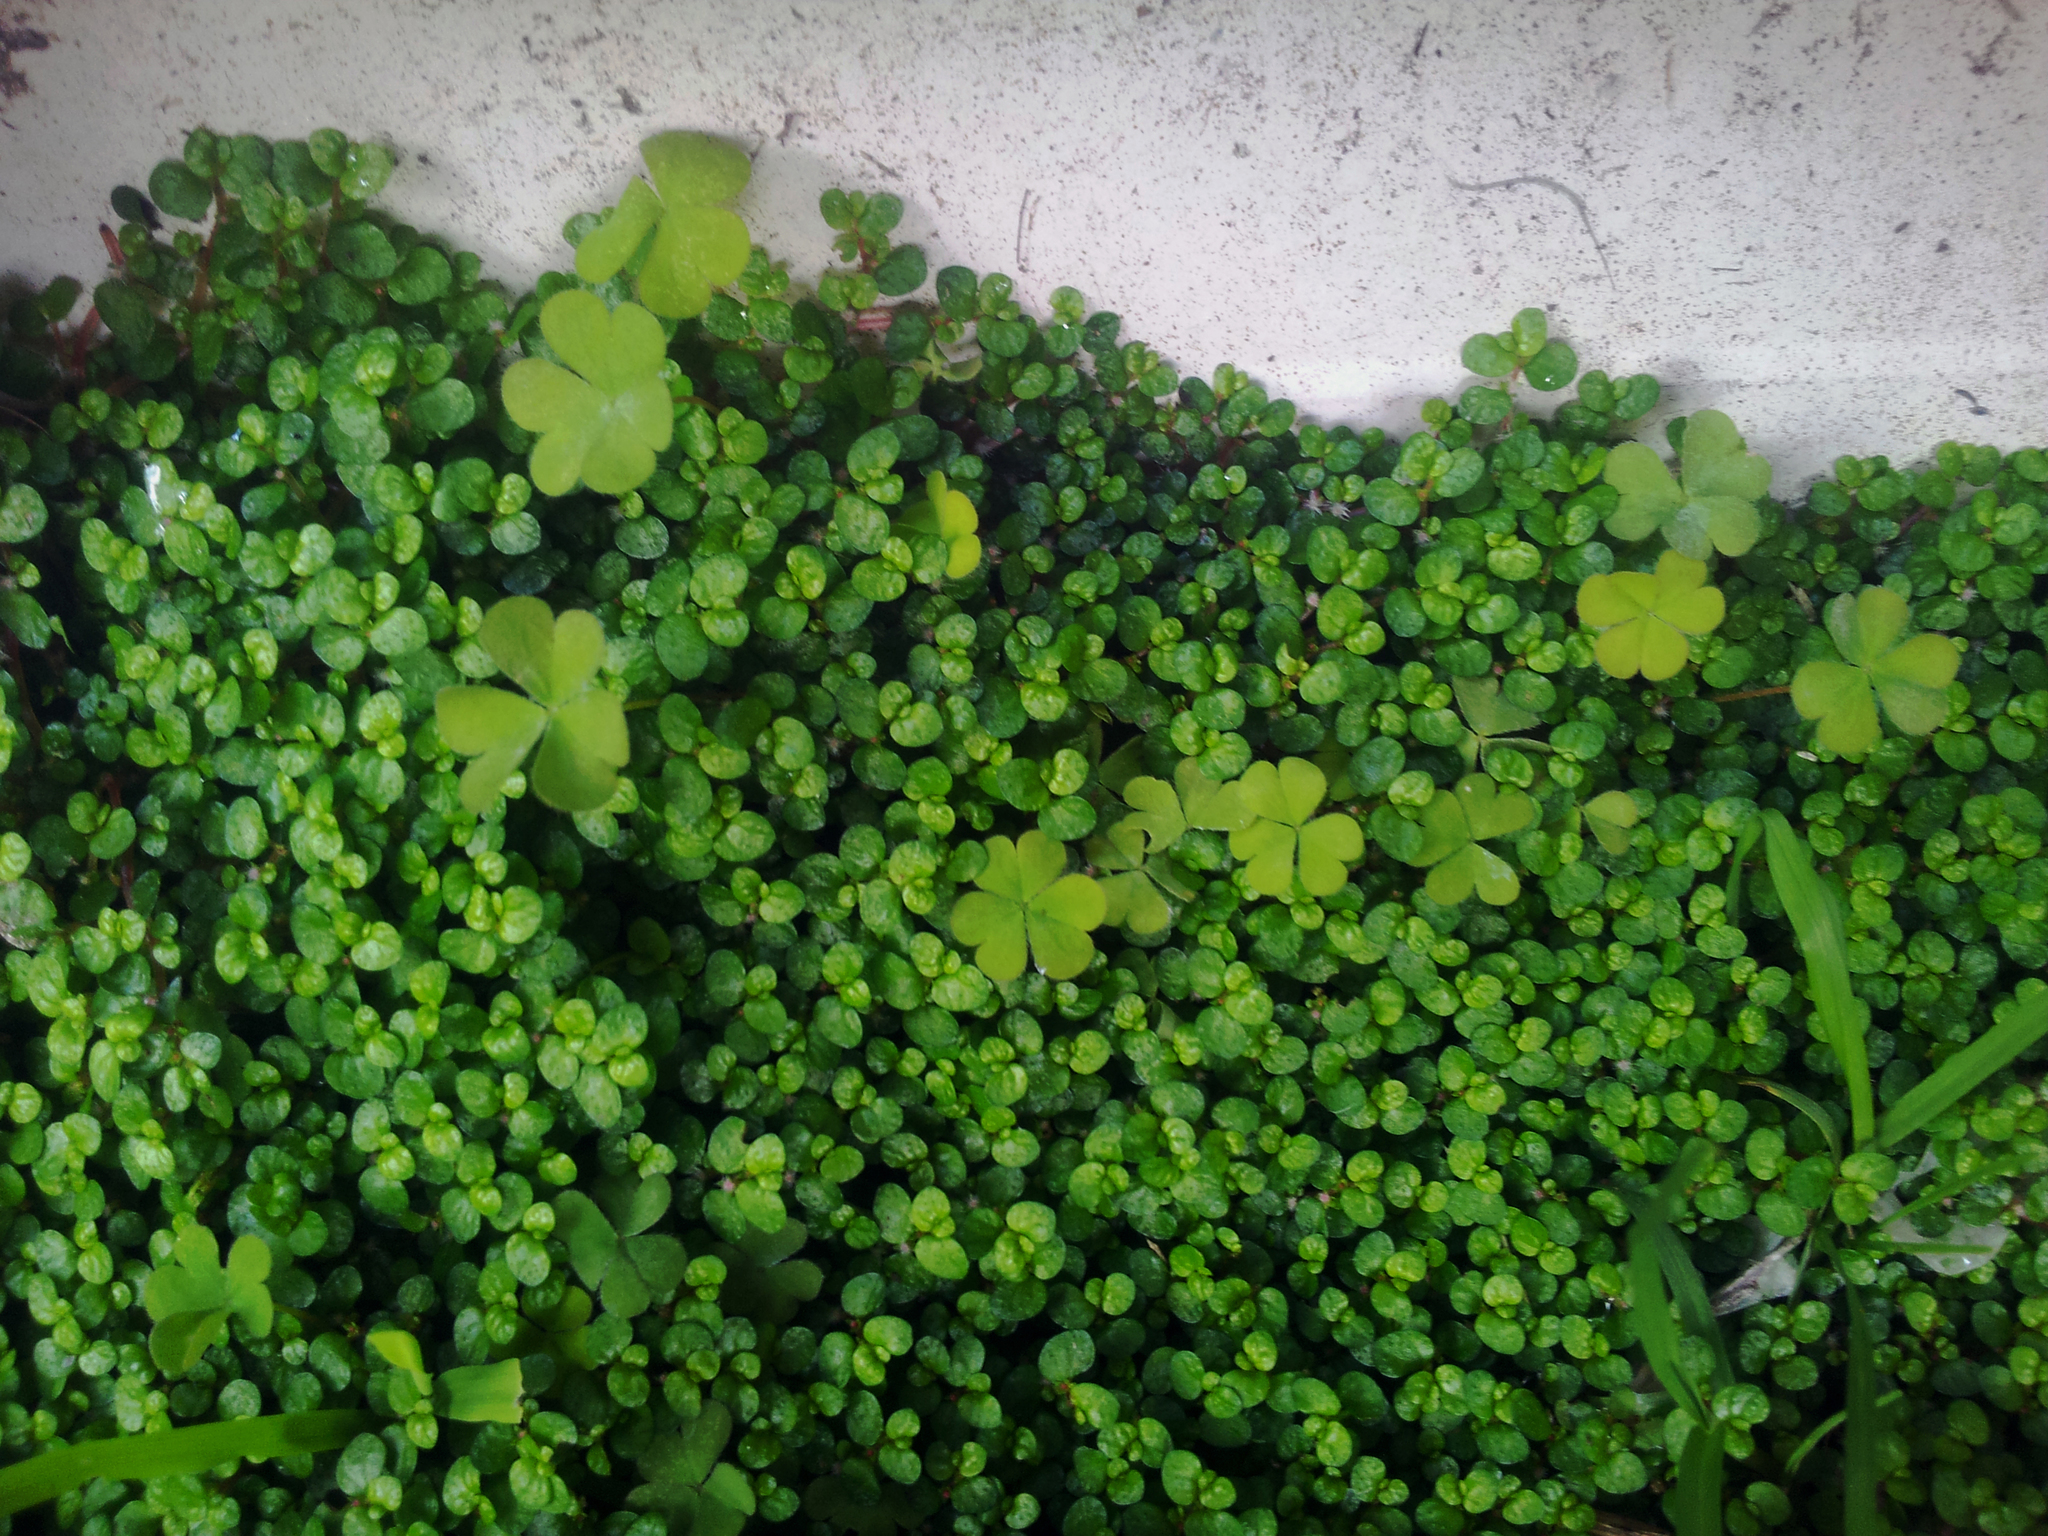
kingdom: Plantae
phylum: Tracheophyta
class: Magnoliopsida
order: Rosales
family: Urticaceae
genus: Soleirolia
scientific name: Soleirolia soleirolii
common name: Mind-your-own-business
